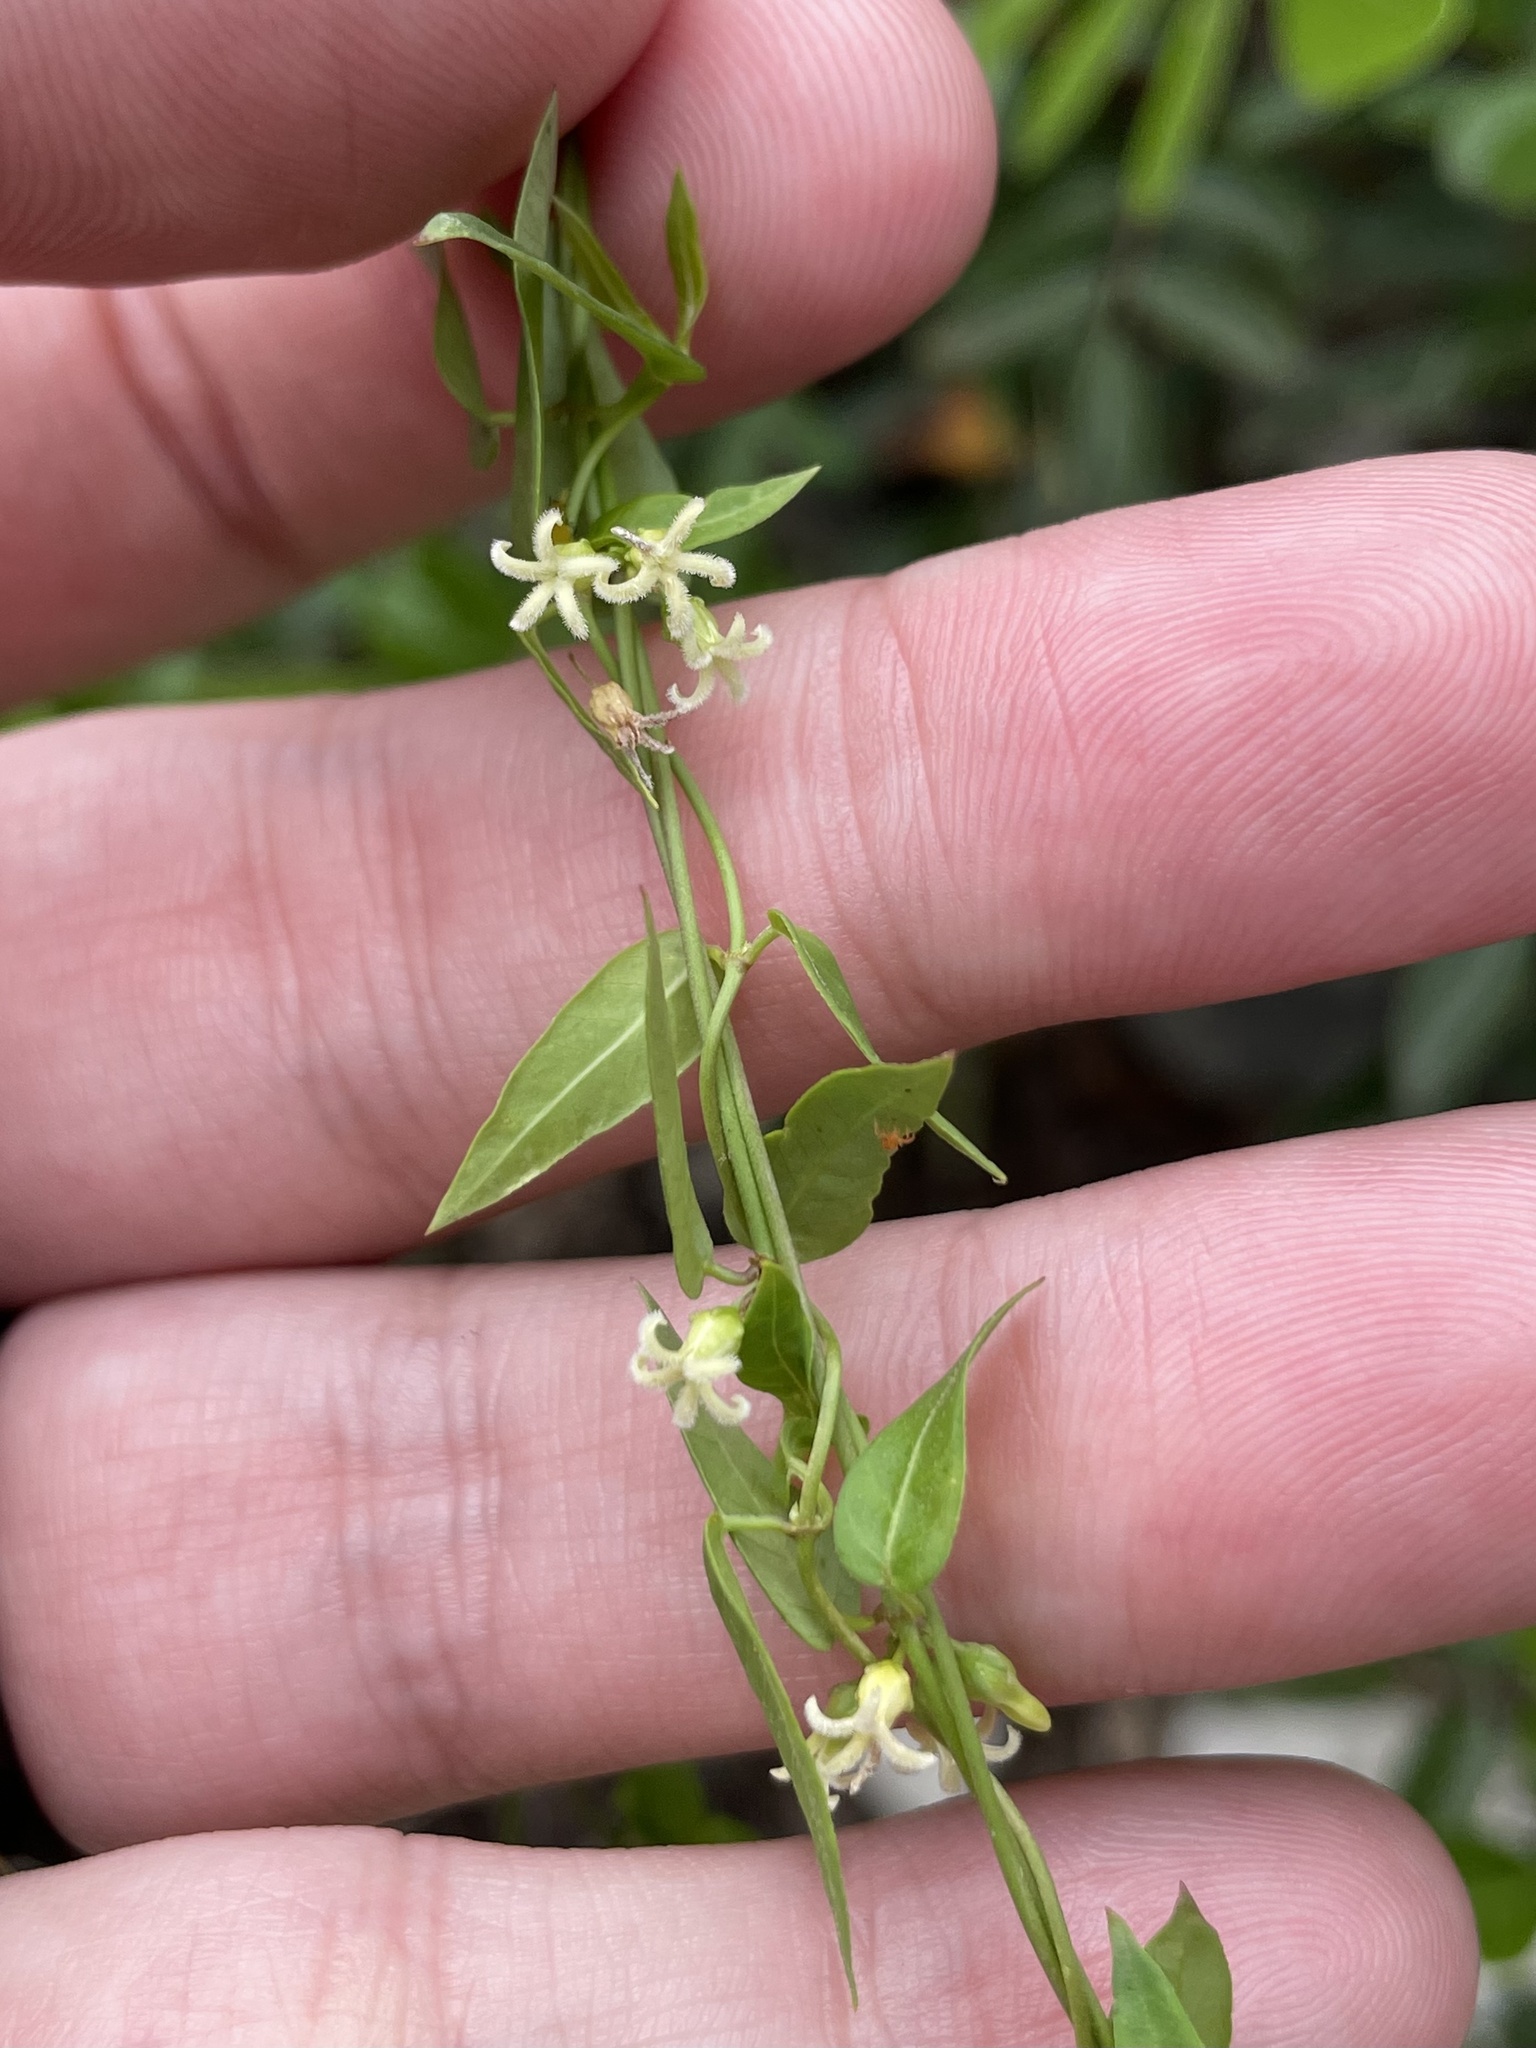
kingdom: Plantae
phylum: Tracheophyta
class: Magnoliopsida
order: Gentianales
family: Apocynaceae
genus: Metastelma
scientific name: Metastelma barbigerum
